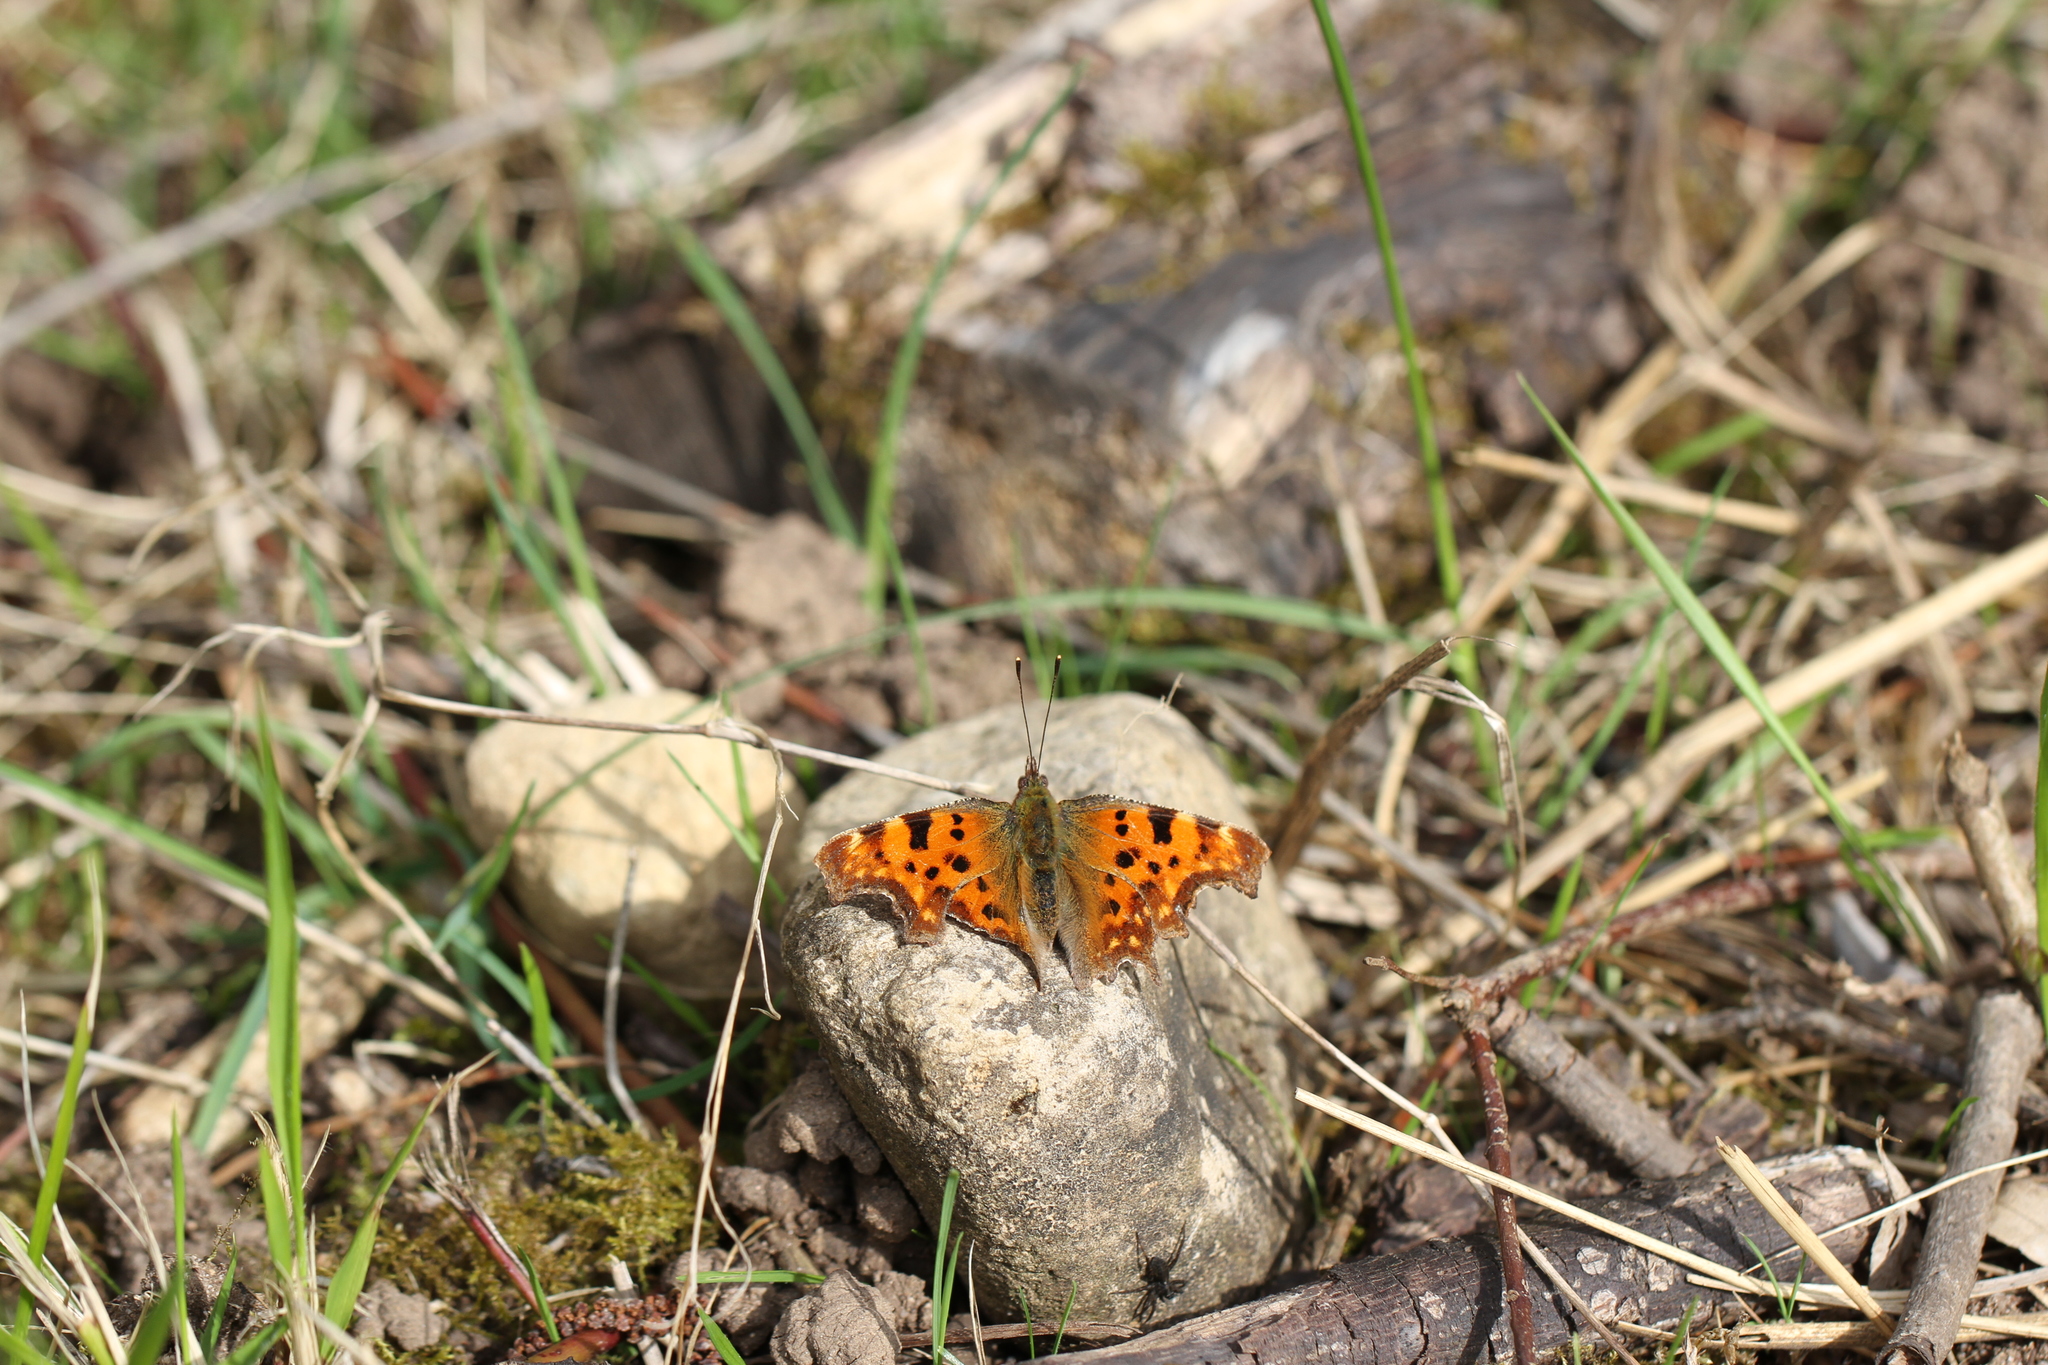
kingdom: Animalia
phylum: Arthropoda
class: Insecta
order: Lepidoptera
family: Nymphalidae
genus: Polygonia
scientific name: Polygonia c-album
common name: Comma
